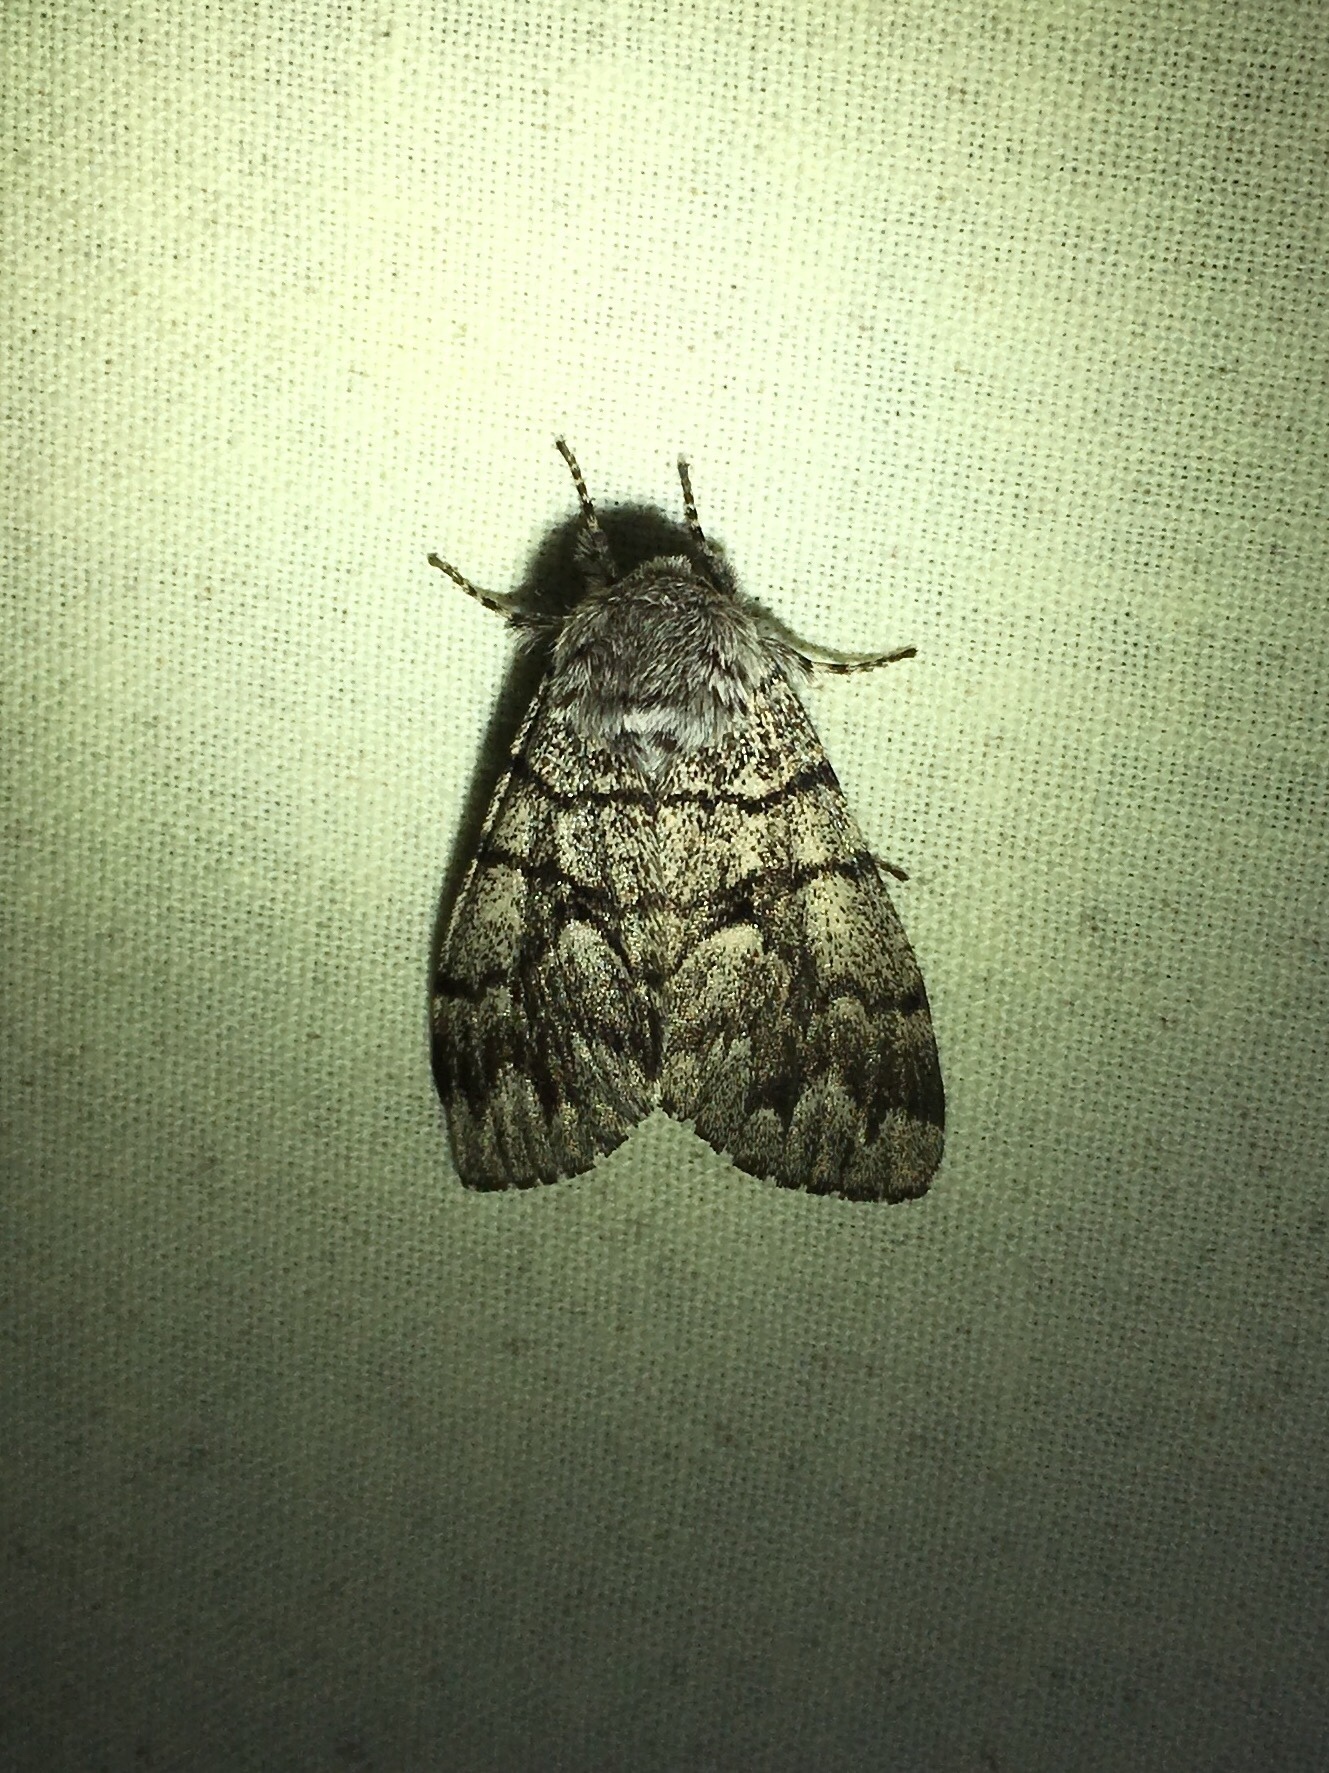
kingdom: Animalia
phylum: Arthropoda
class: Insecta
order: Lepidoptera
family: Noctuidae
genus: Panthea
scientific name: Panthea furcilla
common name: Eastern panthea moth
